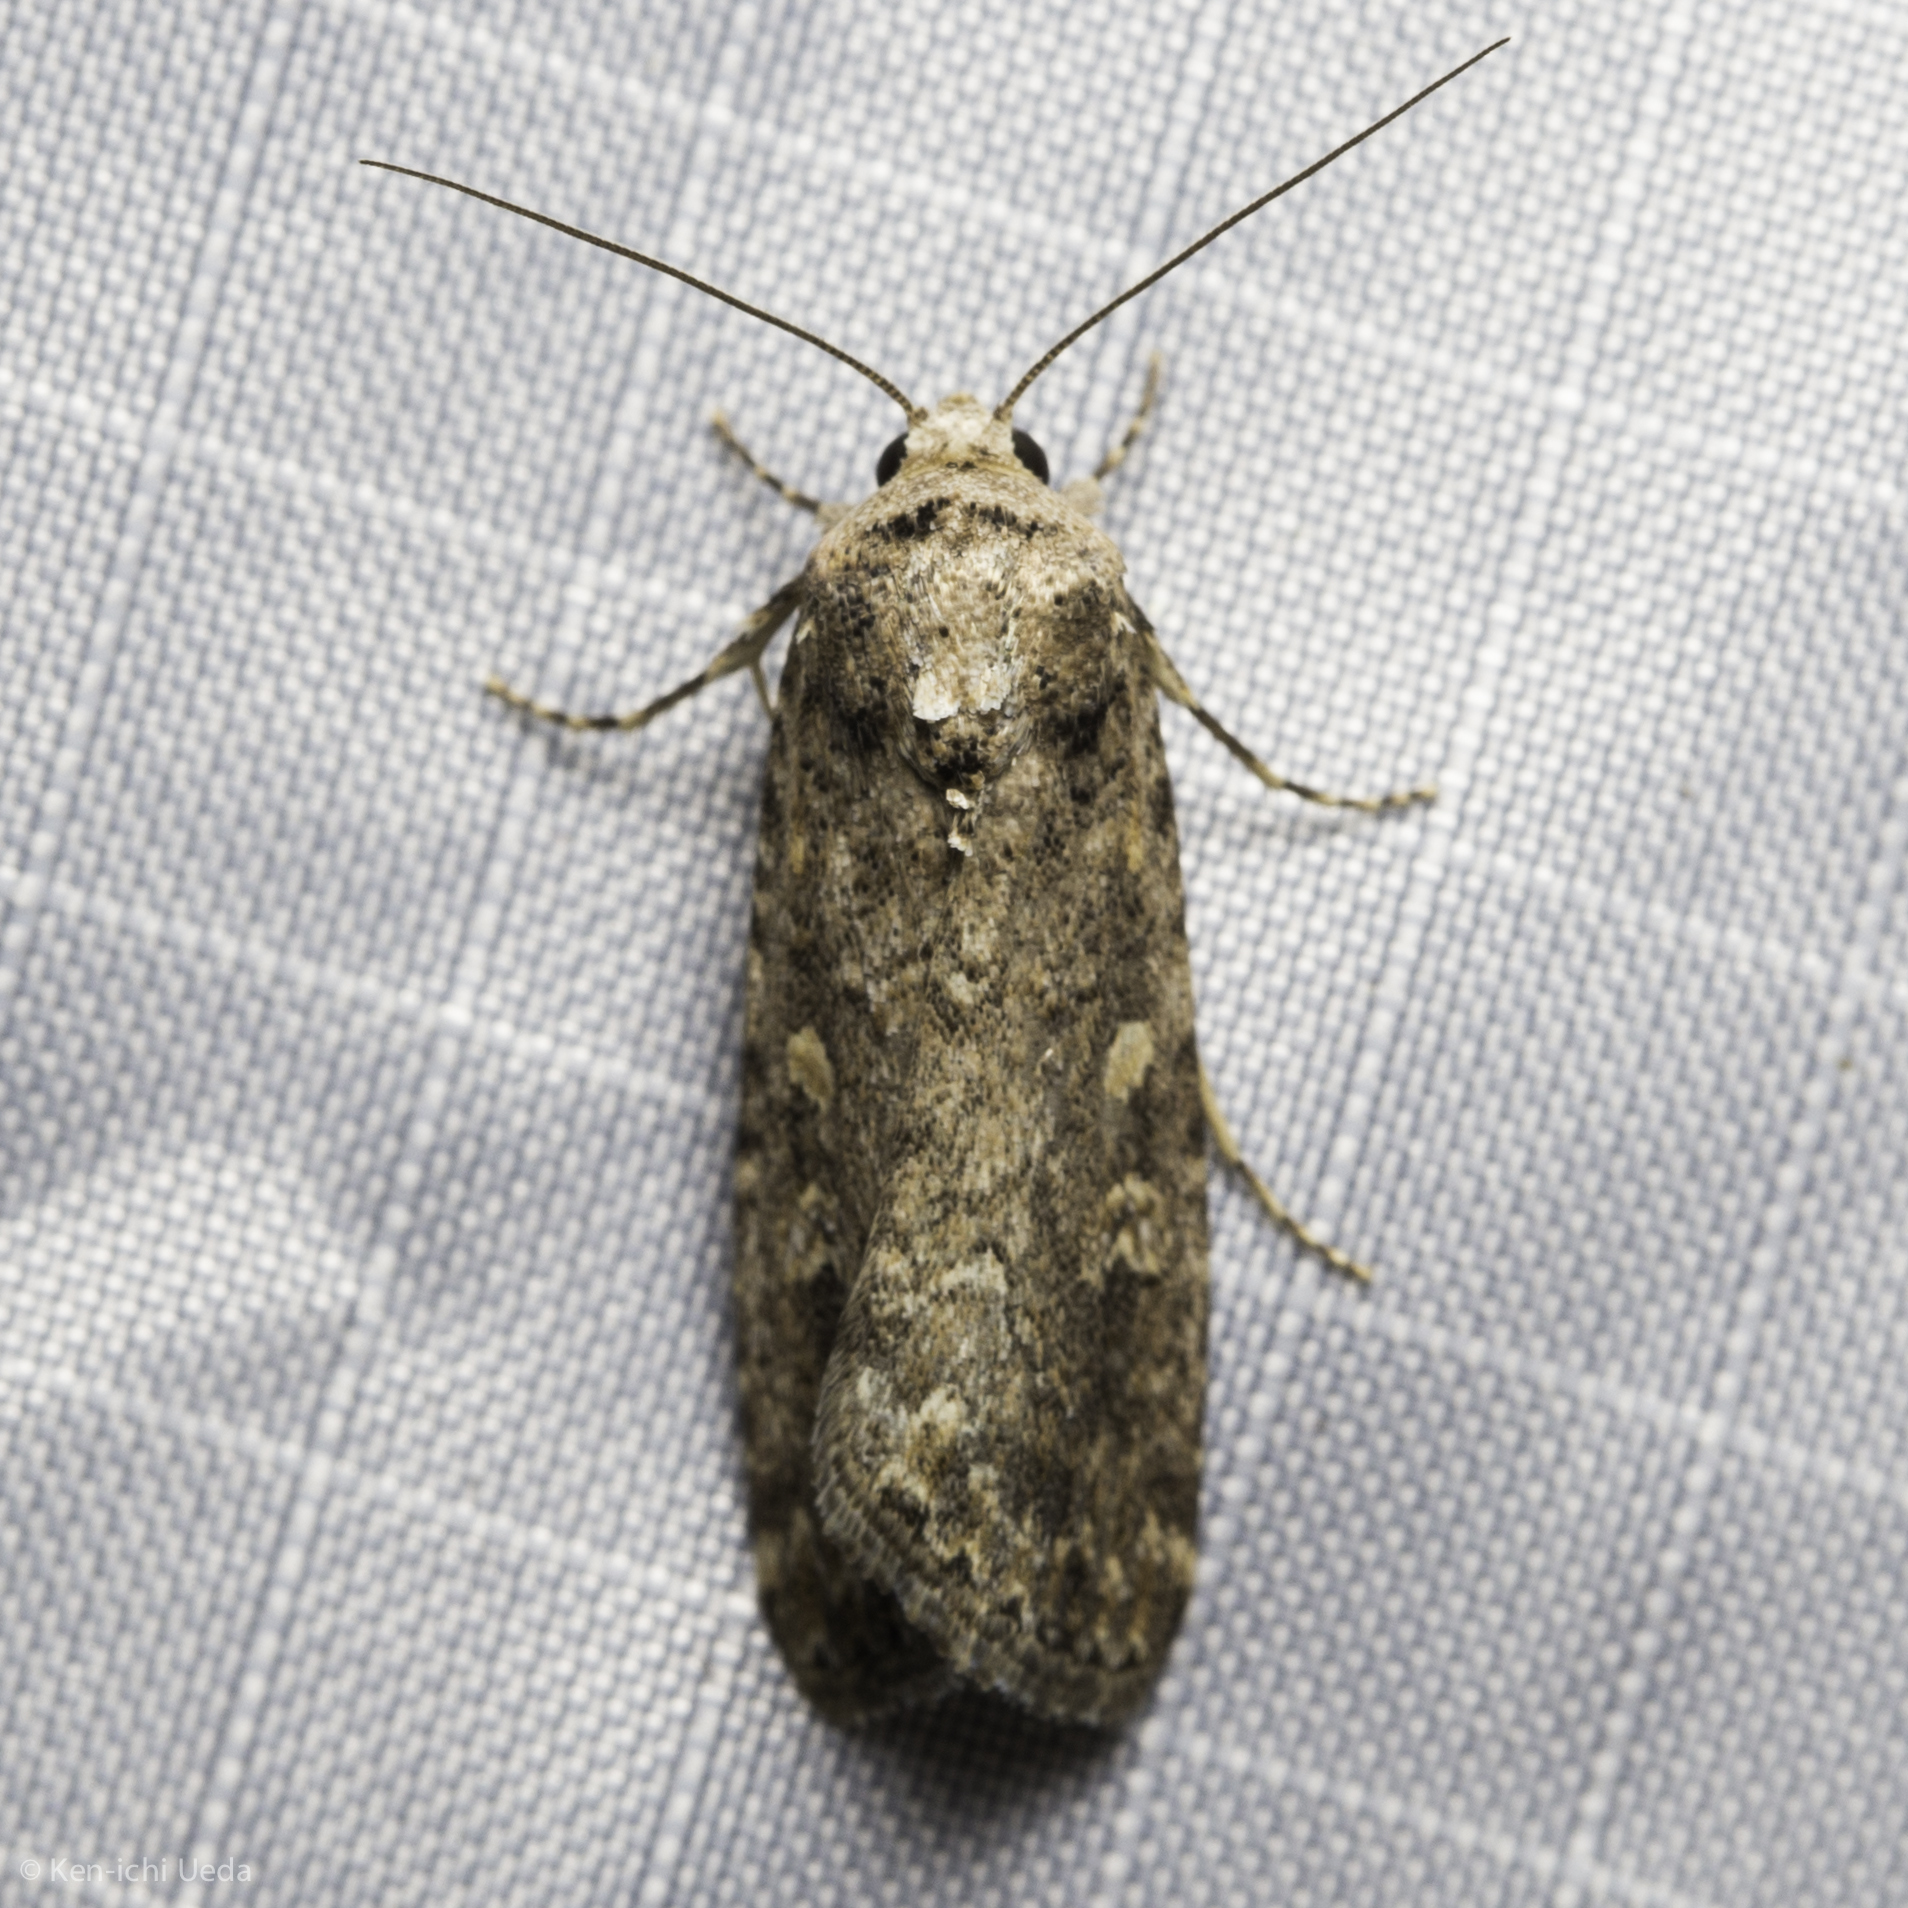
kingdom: Animalia
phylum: Arthropoda
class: Insecta
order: Lepidoptera
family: Noctuidae
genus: Spodoptera
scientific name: Spodoptera exigua
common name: Beet armyworm
